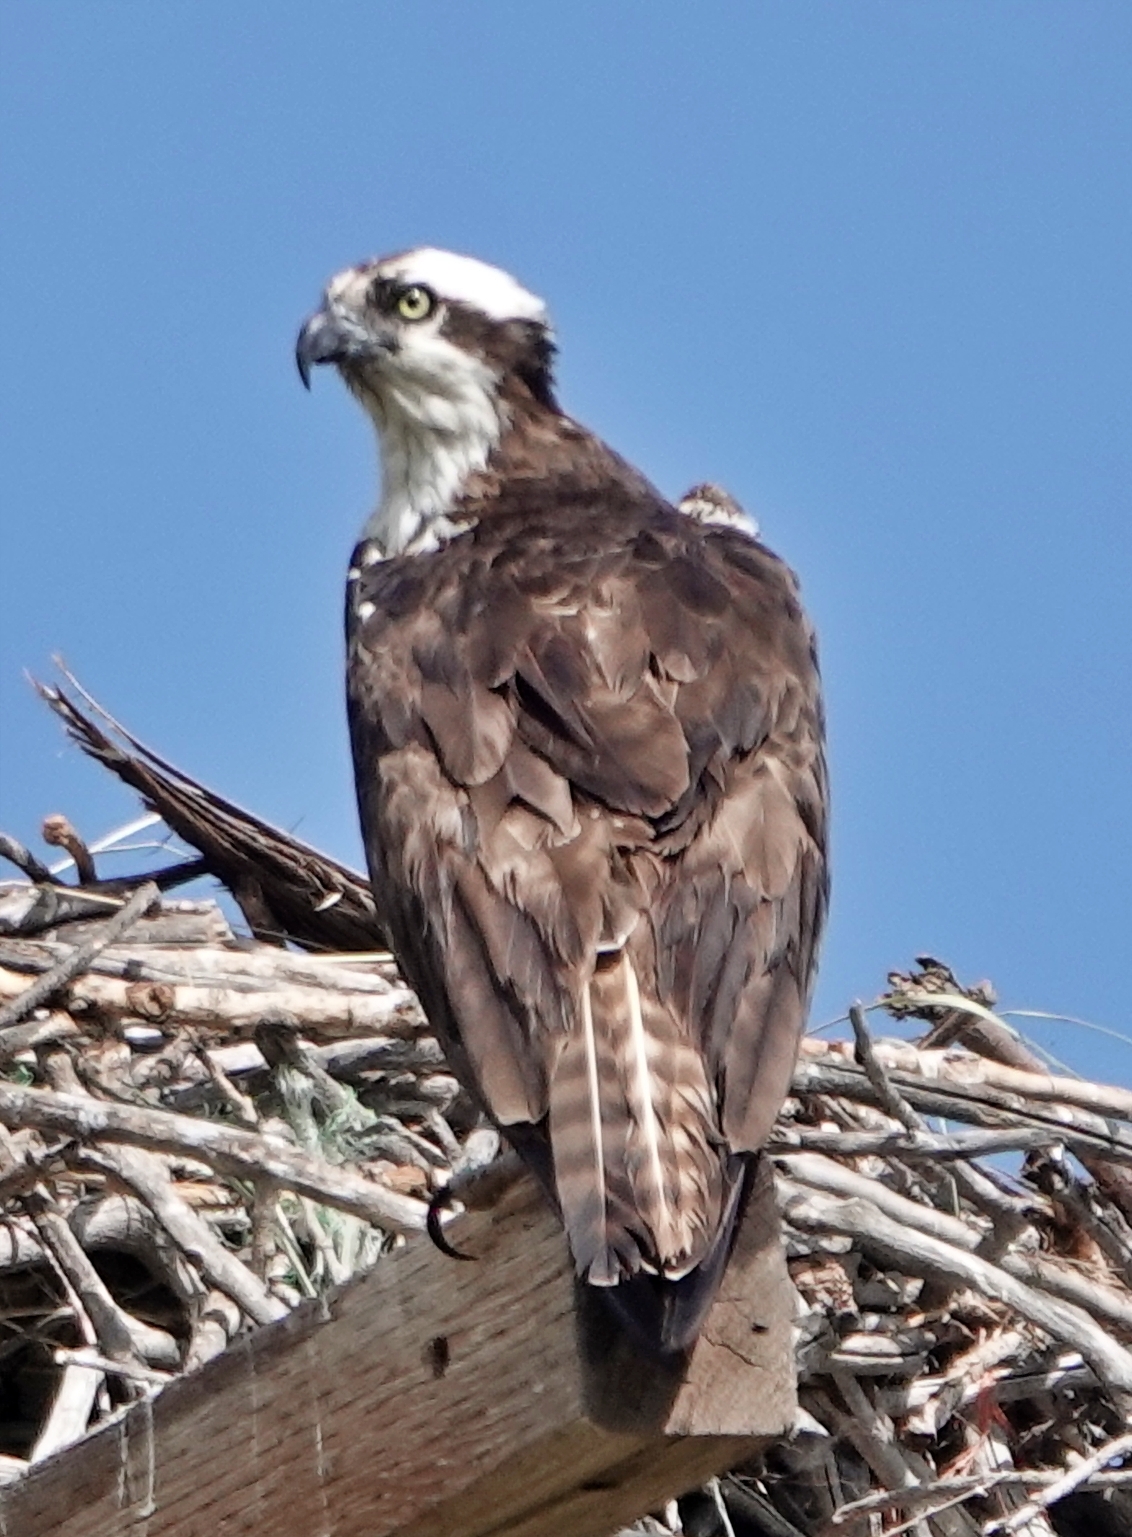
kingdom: Animalia
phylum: Chordata
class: Aves
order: Accipitriformes
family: Pandionidae
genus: Pandion
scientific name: Pandion haliaetus
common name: Osprey
